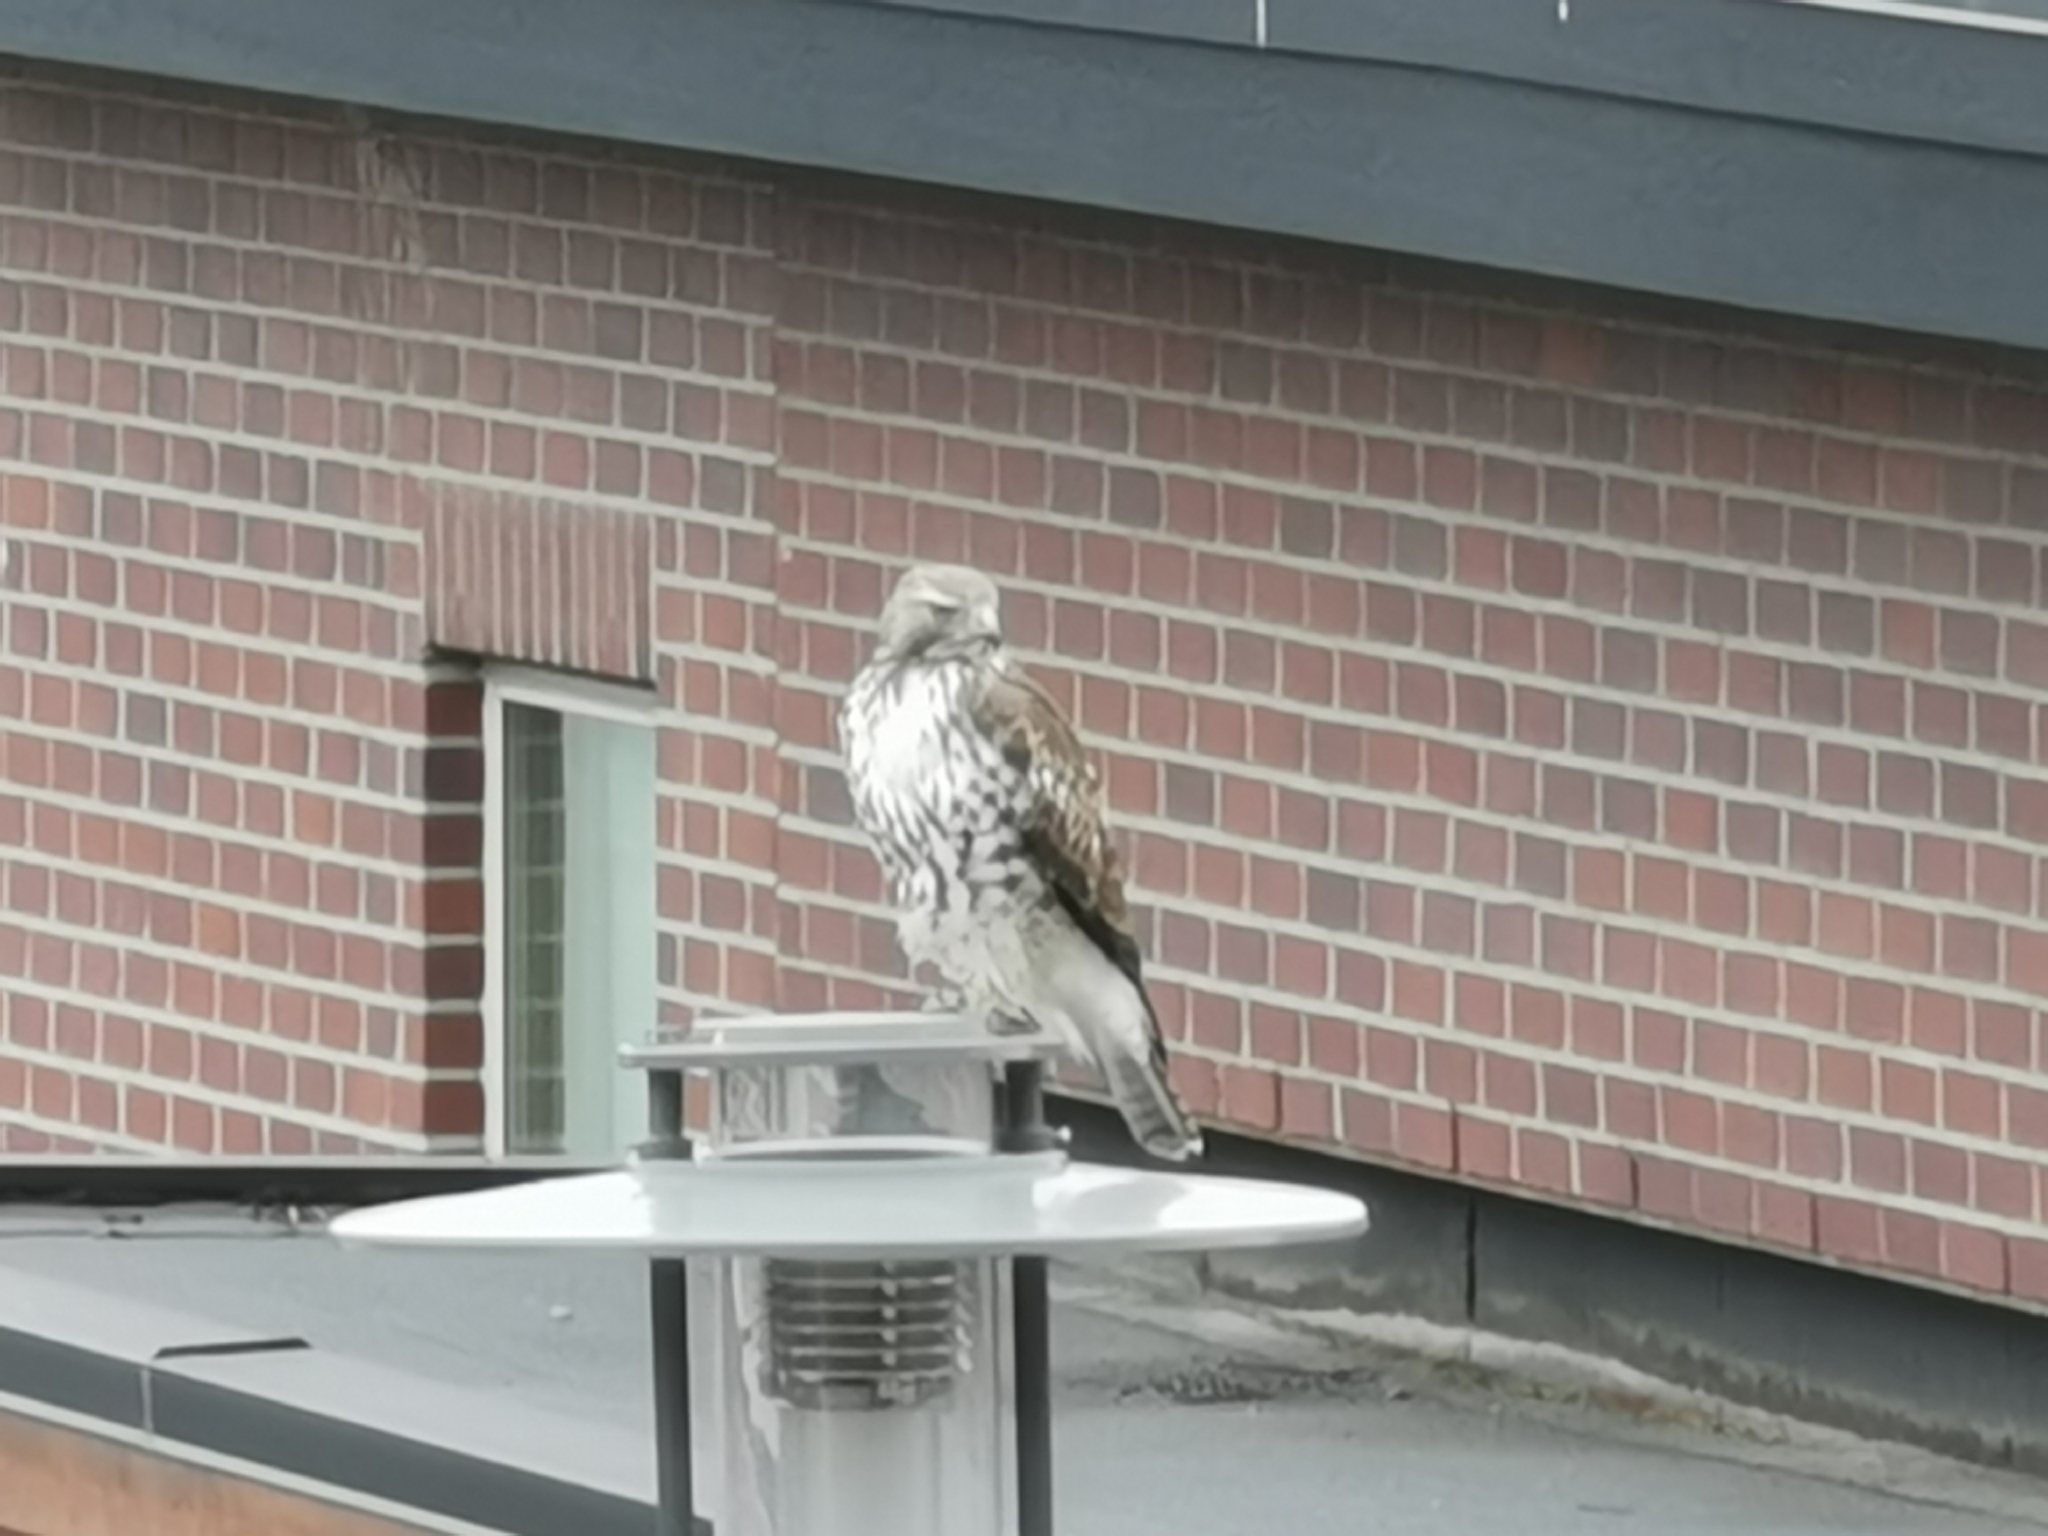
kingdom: Animalia
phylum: Chordata
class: Aves
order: Accipitriformes
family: Accipitridae
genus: Buteo
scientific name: Buteo jamaicensis
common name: Red-tailed hawk
